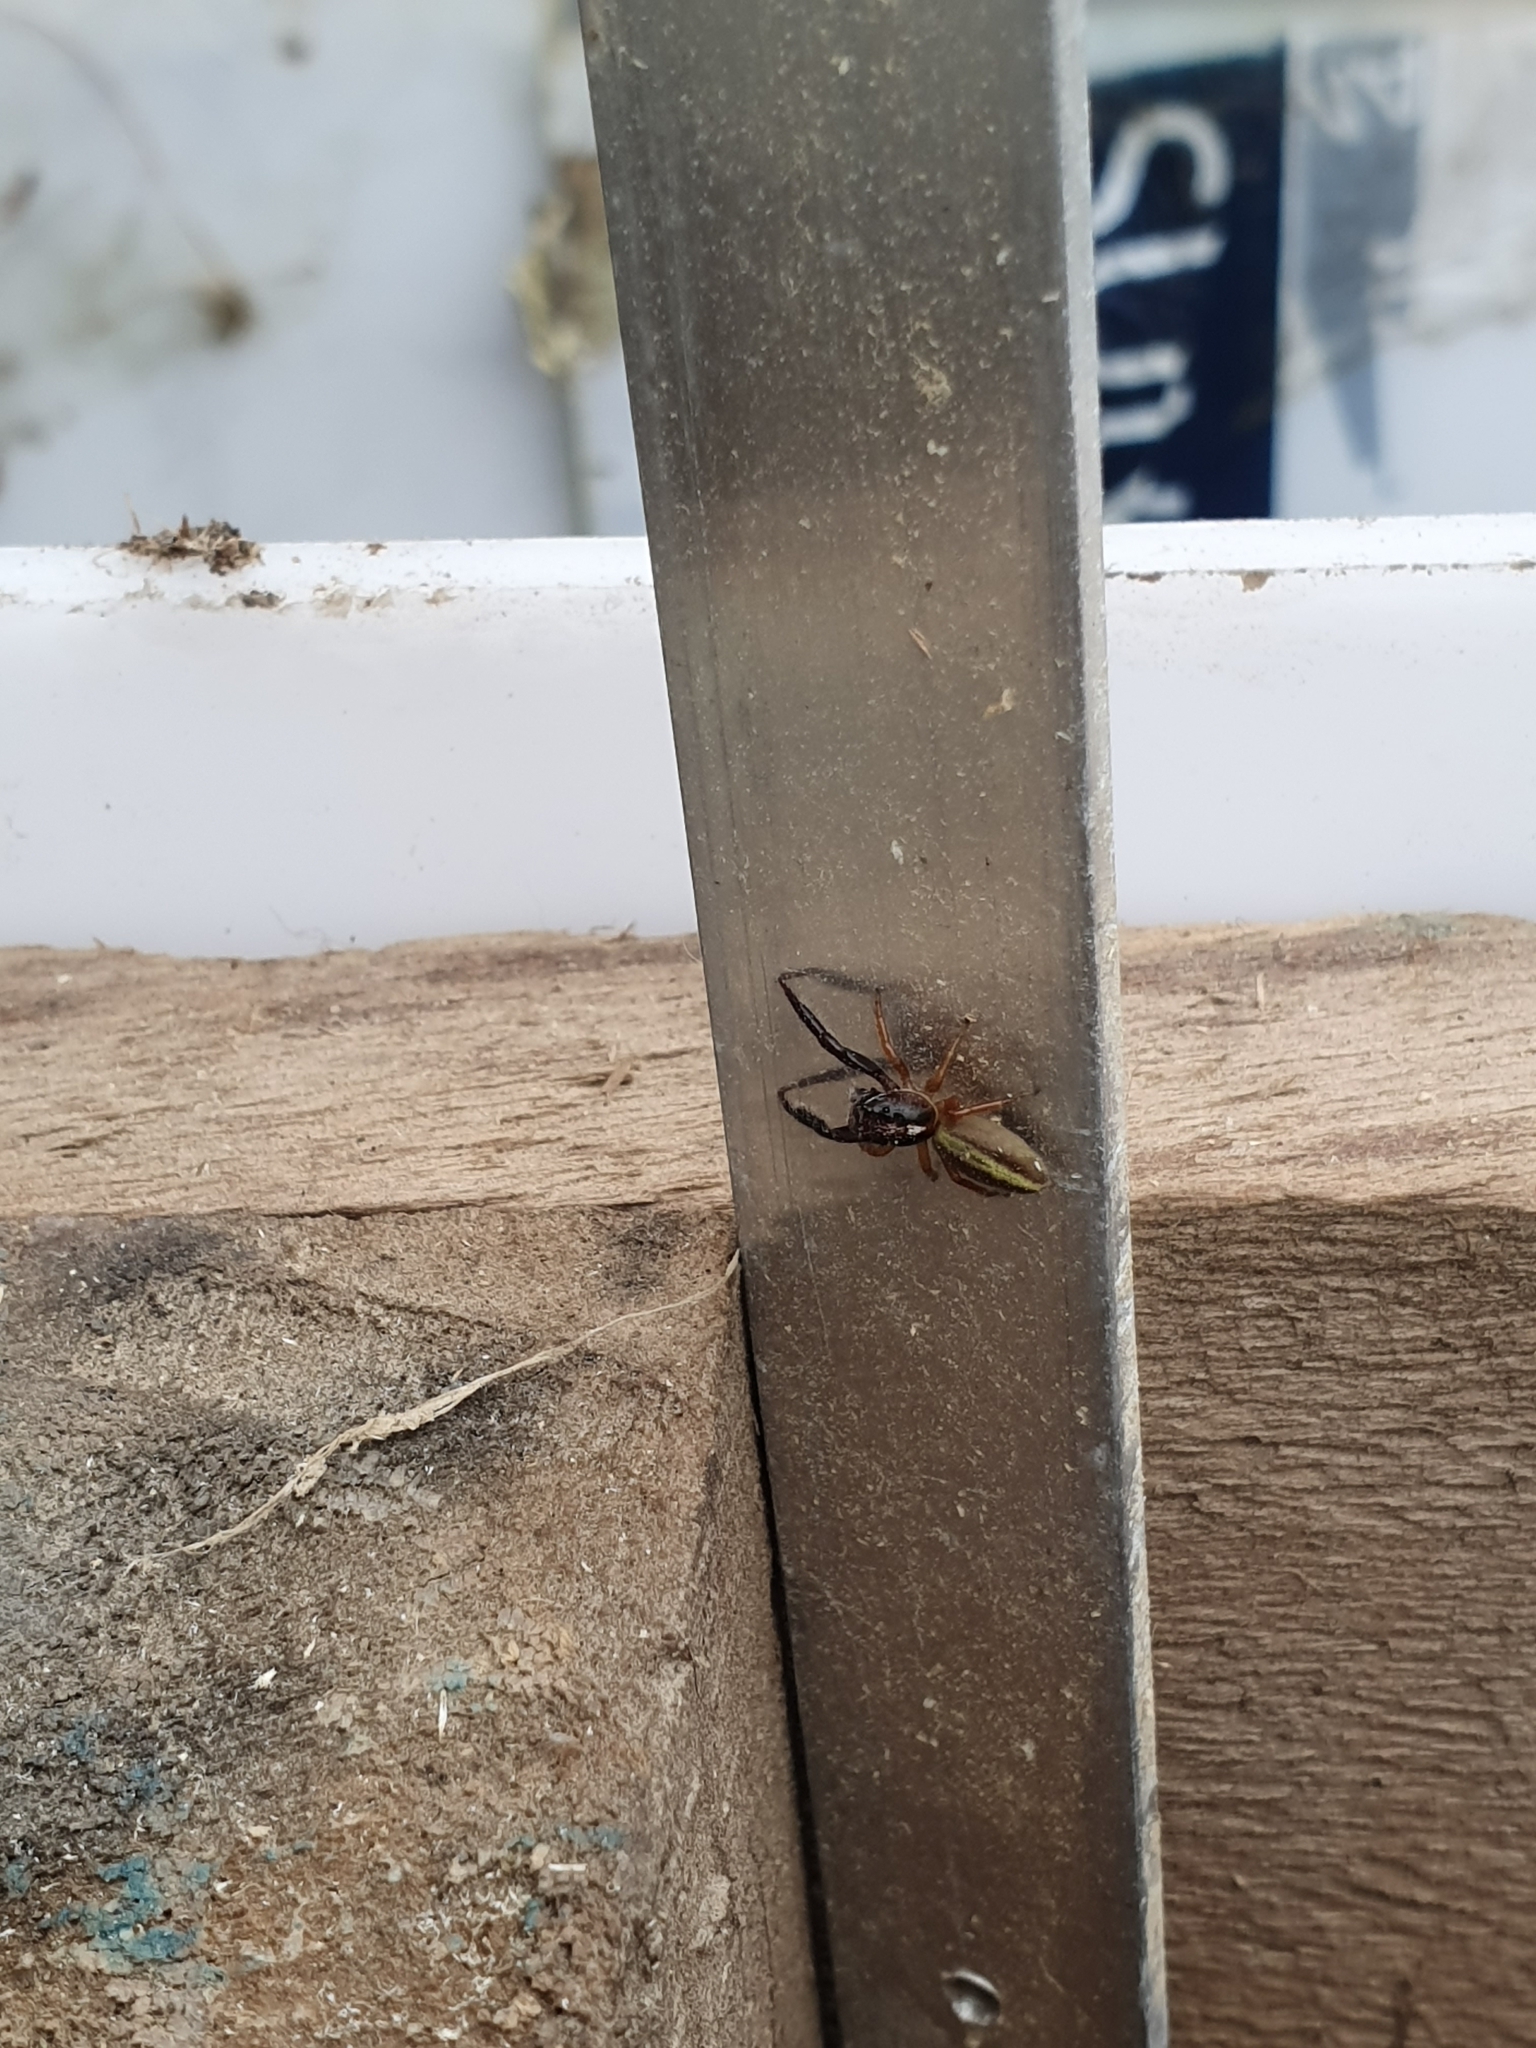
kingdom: Animalia
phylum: Arthropoda
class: Arachnida
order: Araneae
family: Salticidae
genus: Trite
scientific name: Trite planiceps
